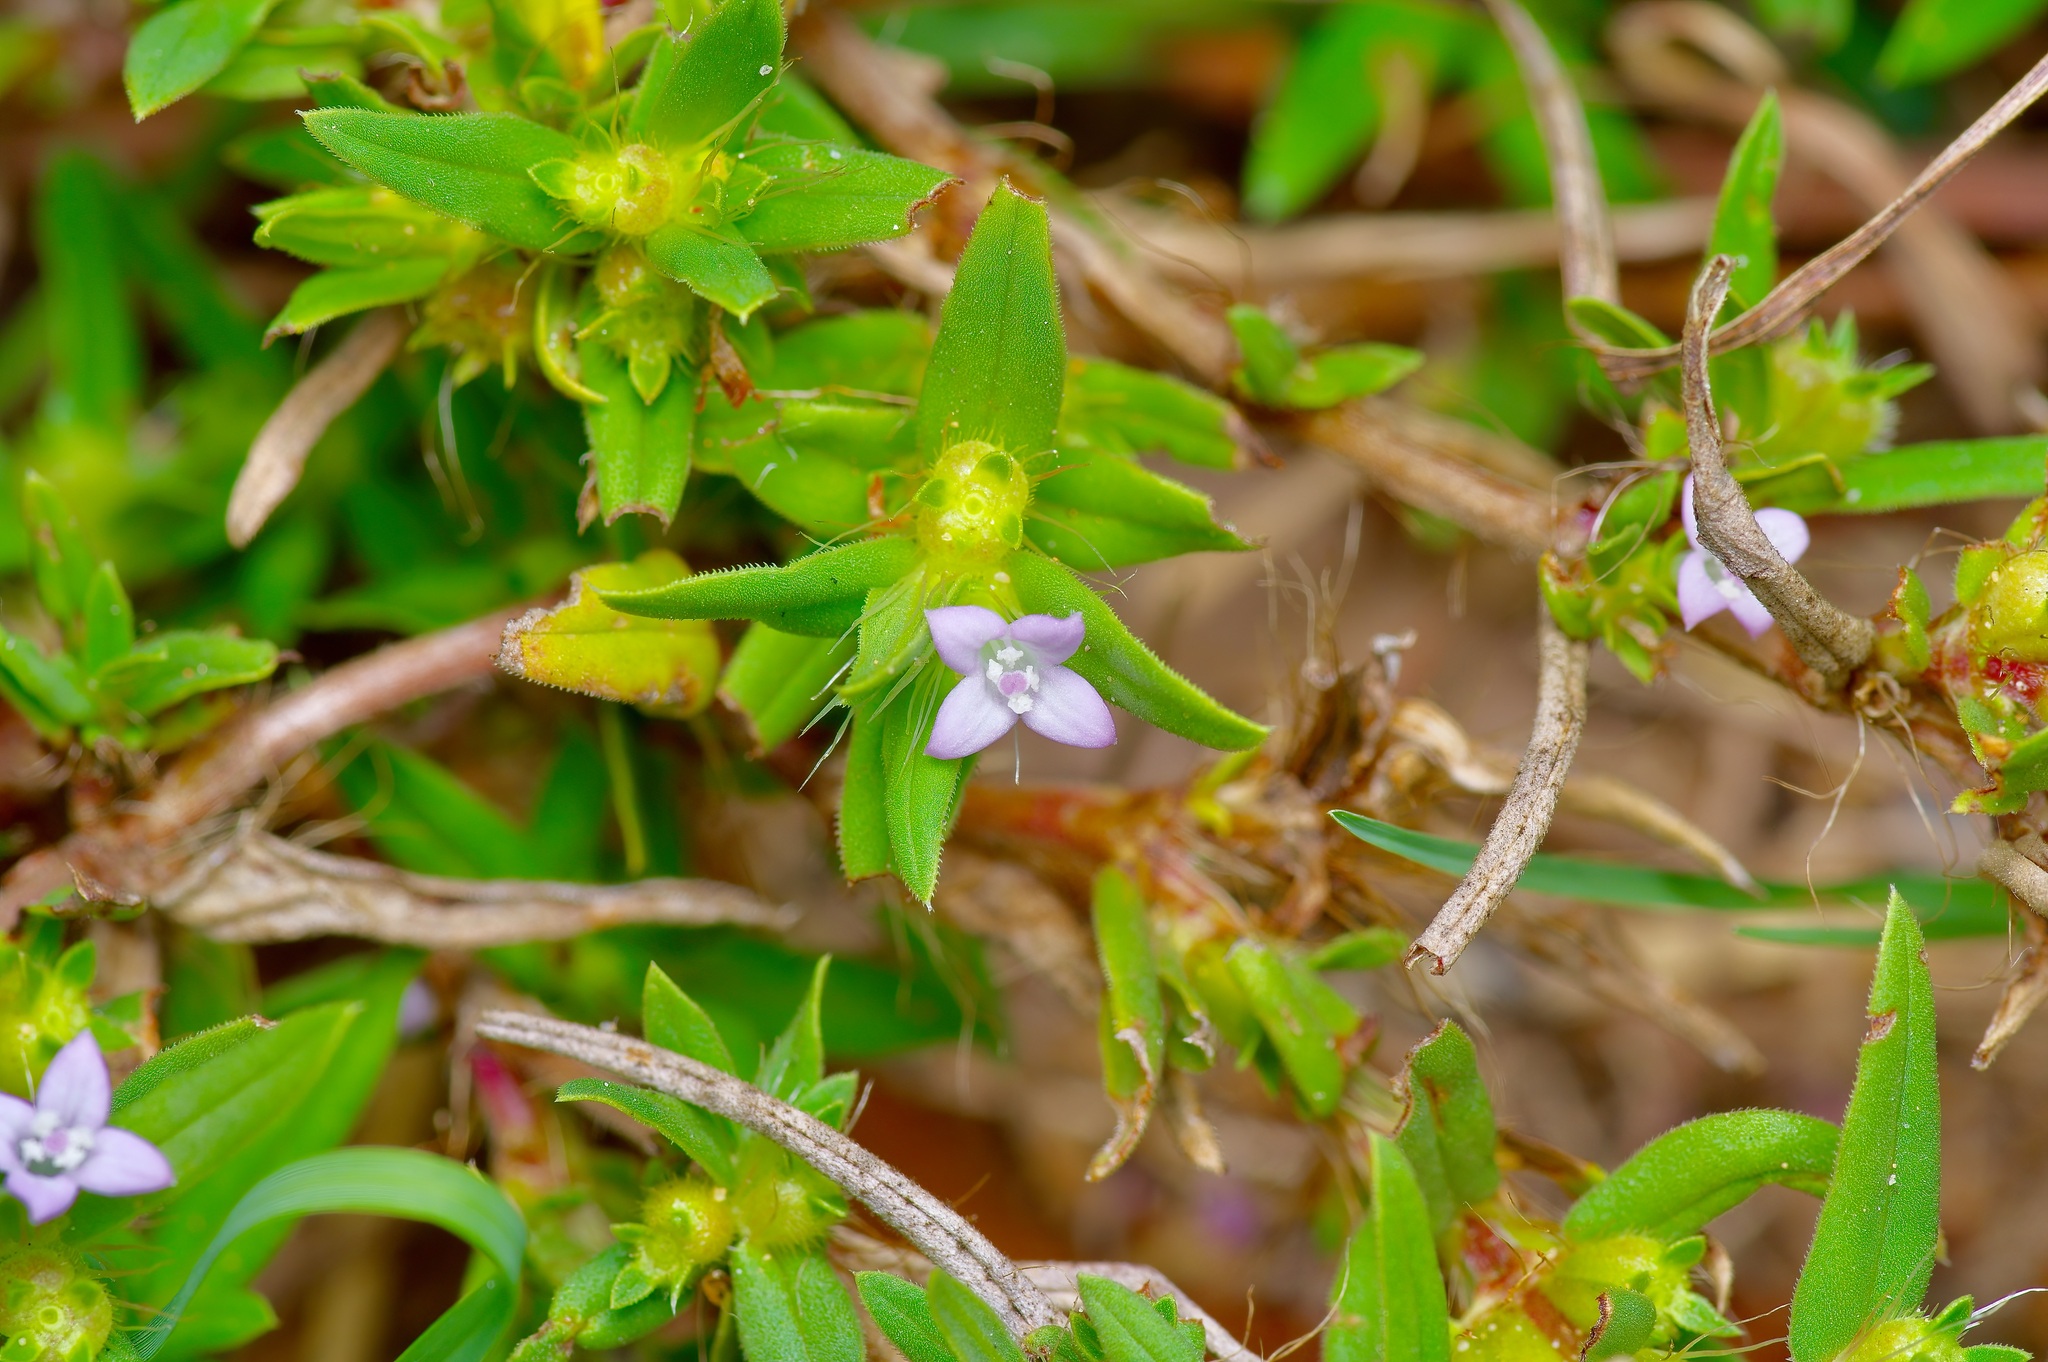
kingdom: Plantae
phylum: Tracheophyta
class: Magnoliopsida
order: Gentianales
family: Rubiaceae
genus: Hexasepalum
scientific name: Hexasepalum teres
